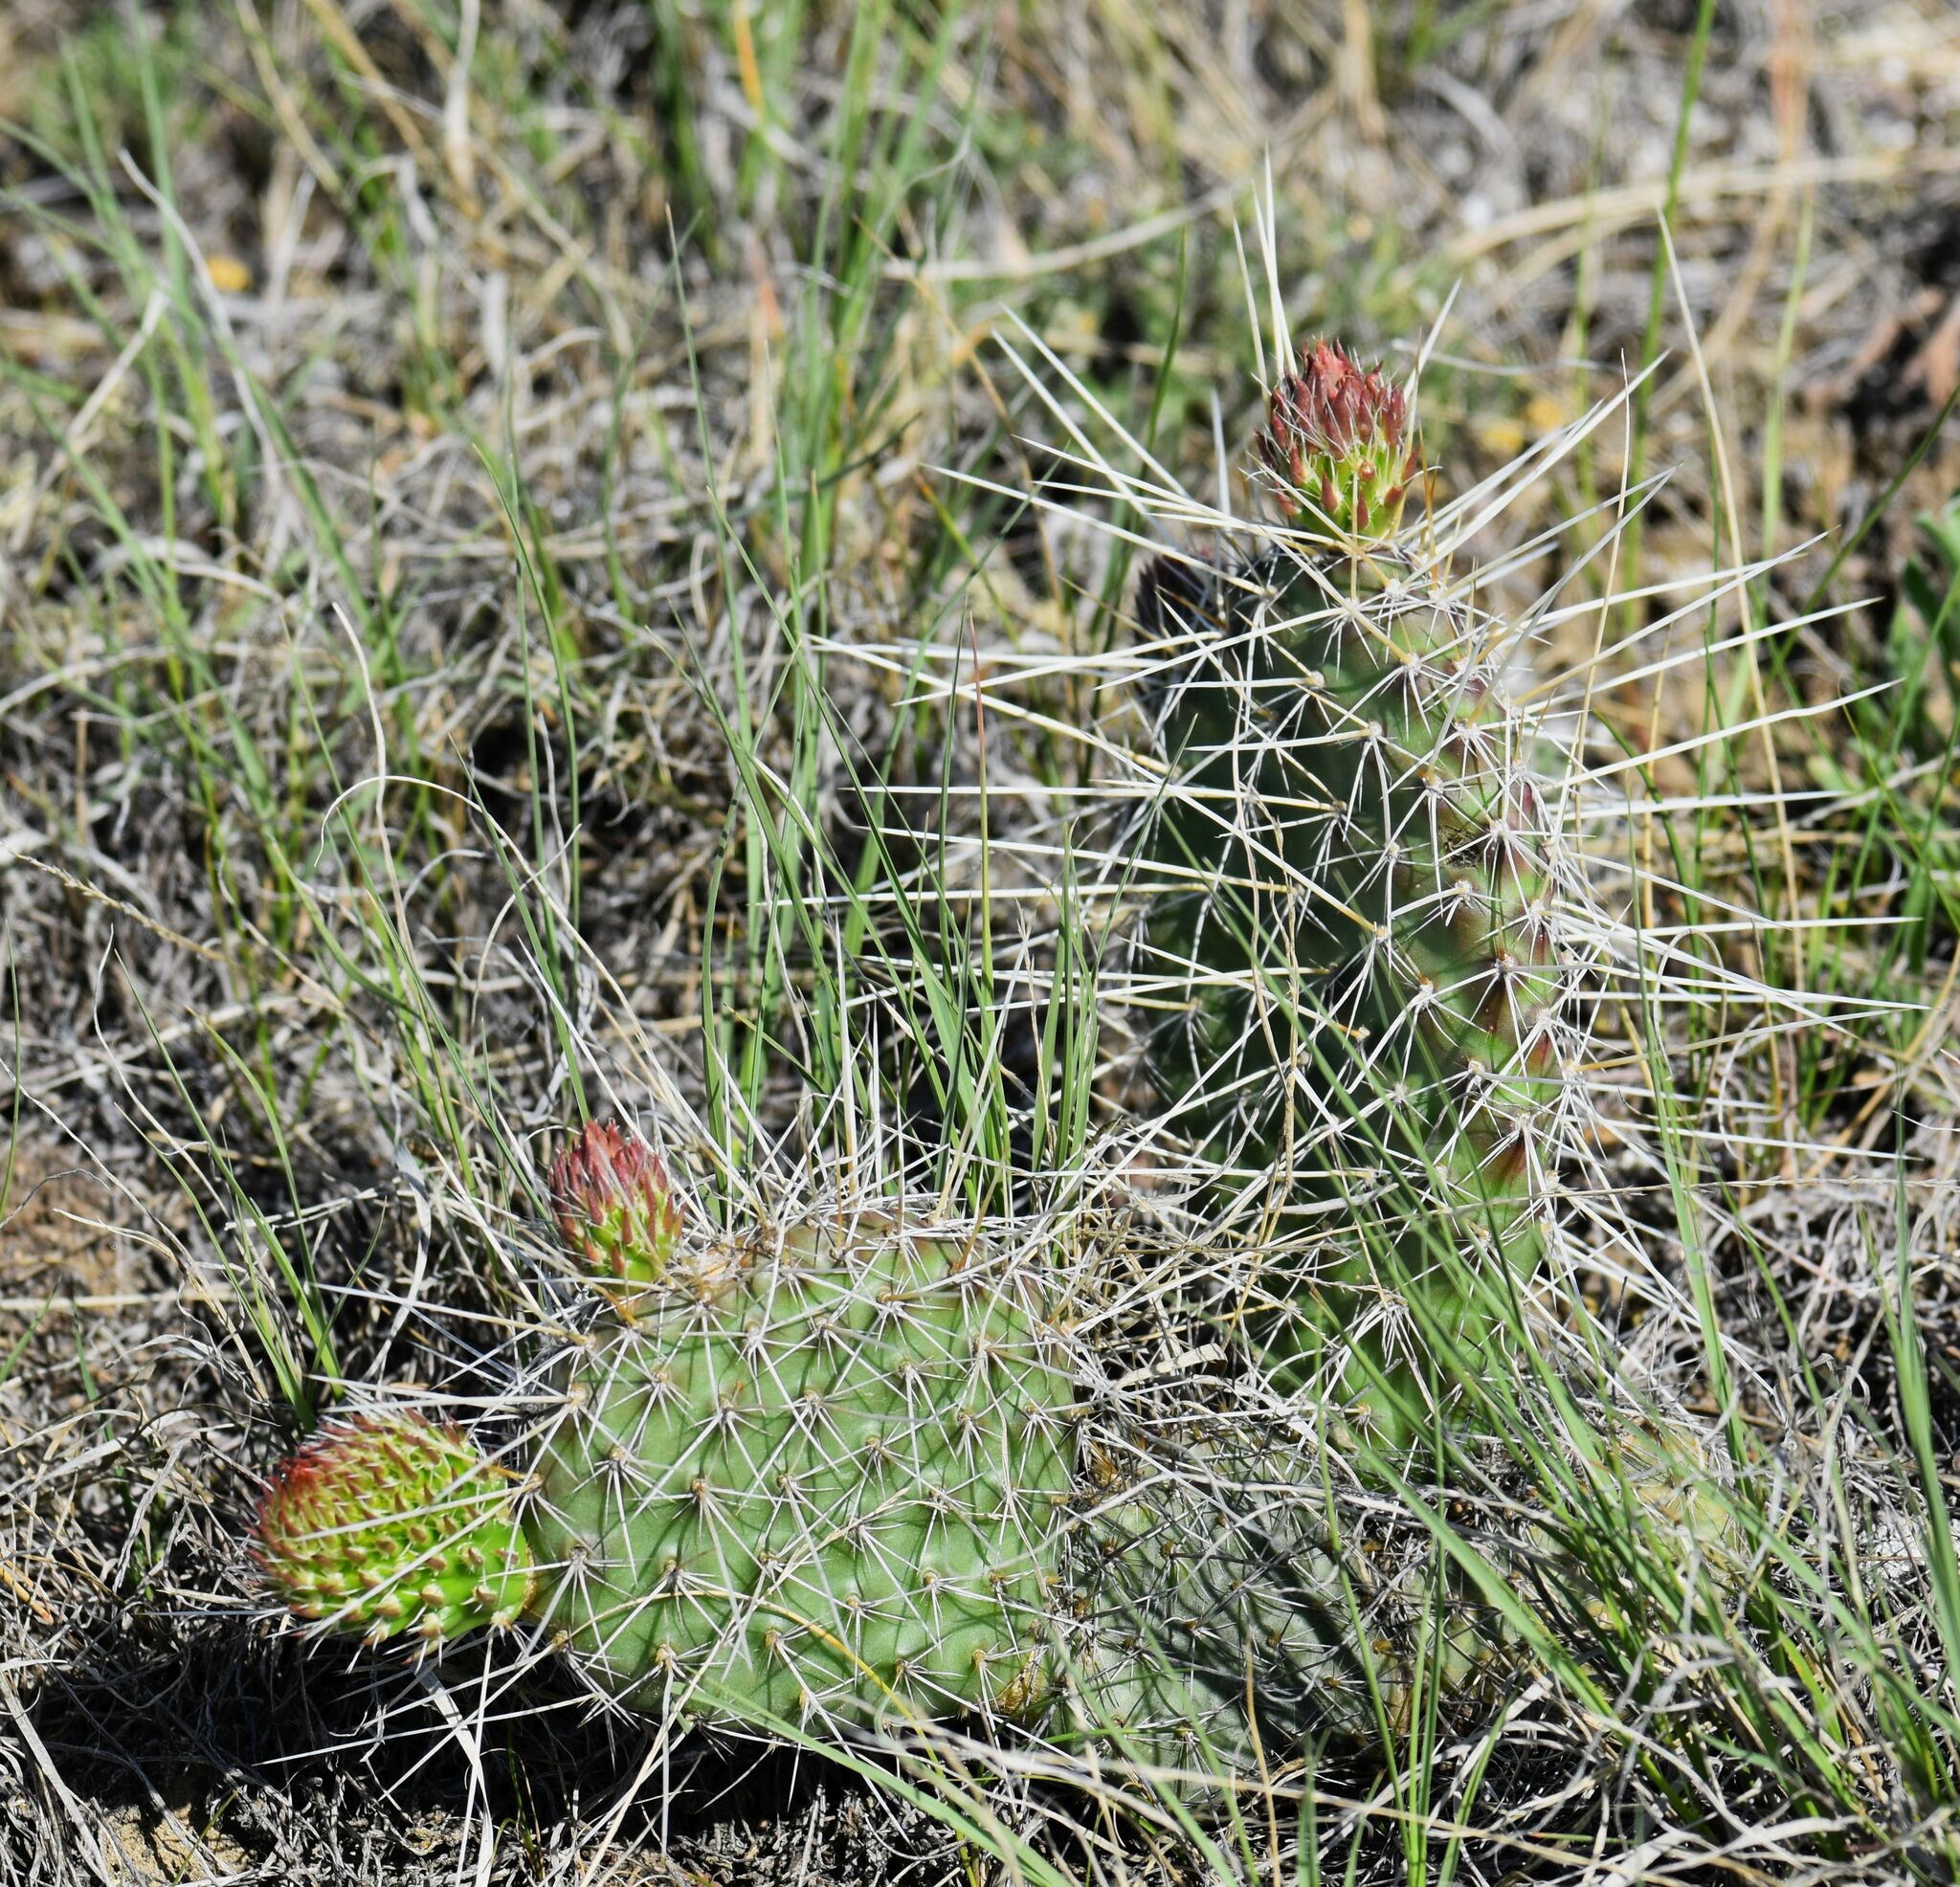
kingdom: Plantae
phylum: Tracheophyta
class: Magnoliopsida
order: Caryophyllales
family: Cactaceae
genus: Opuntia
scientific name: Opuntia polyacantha
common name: Plains prickly-pear
